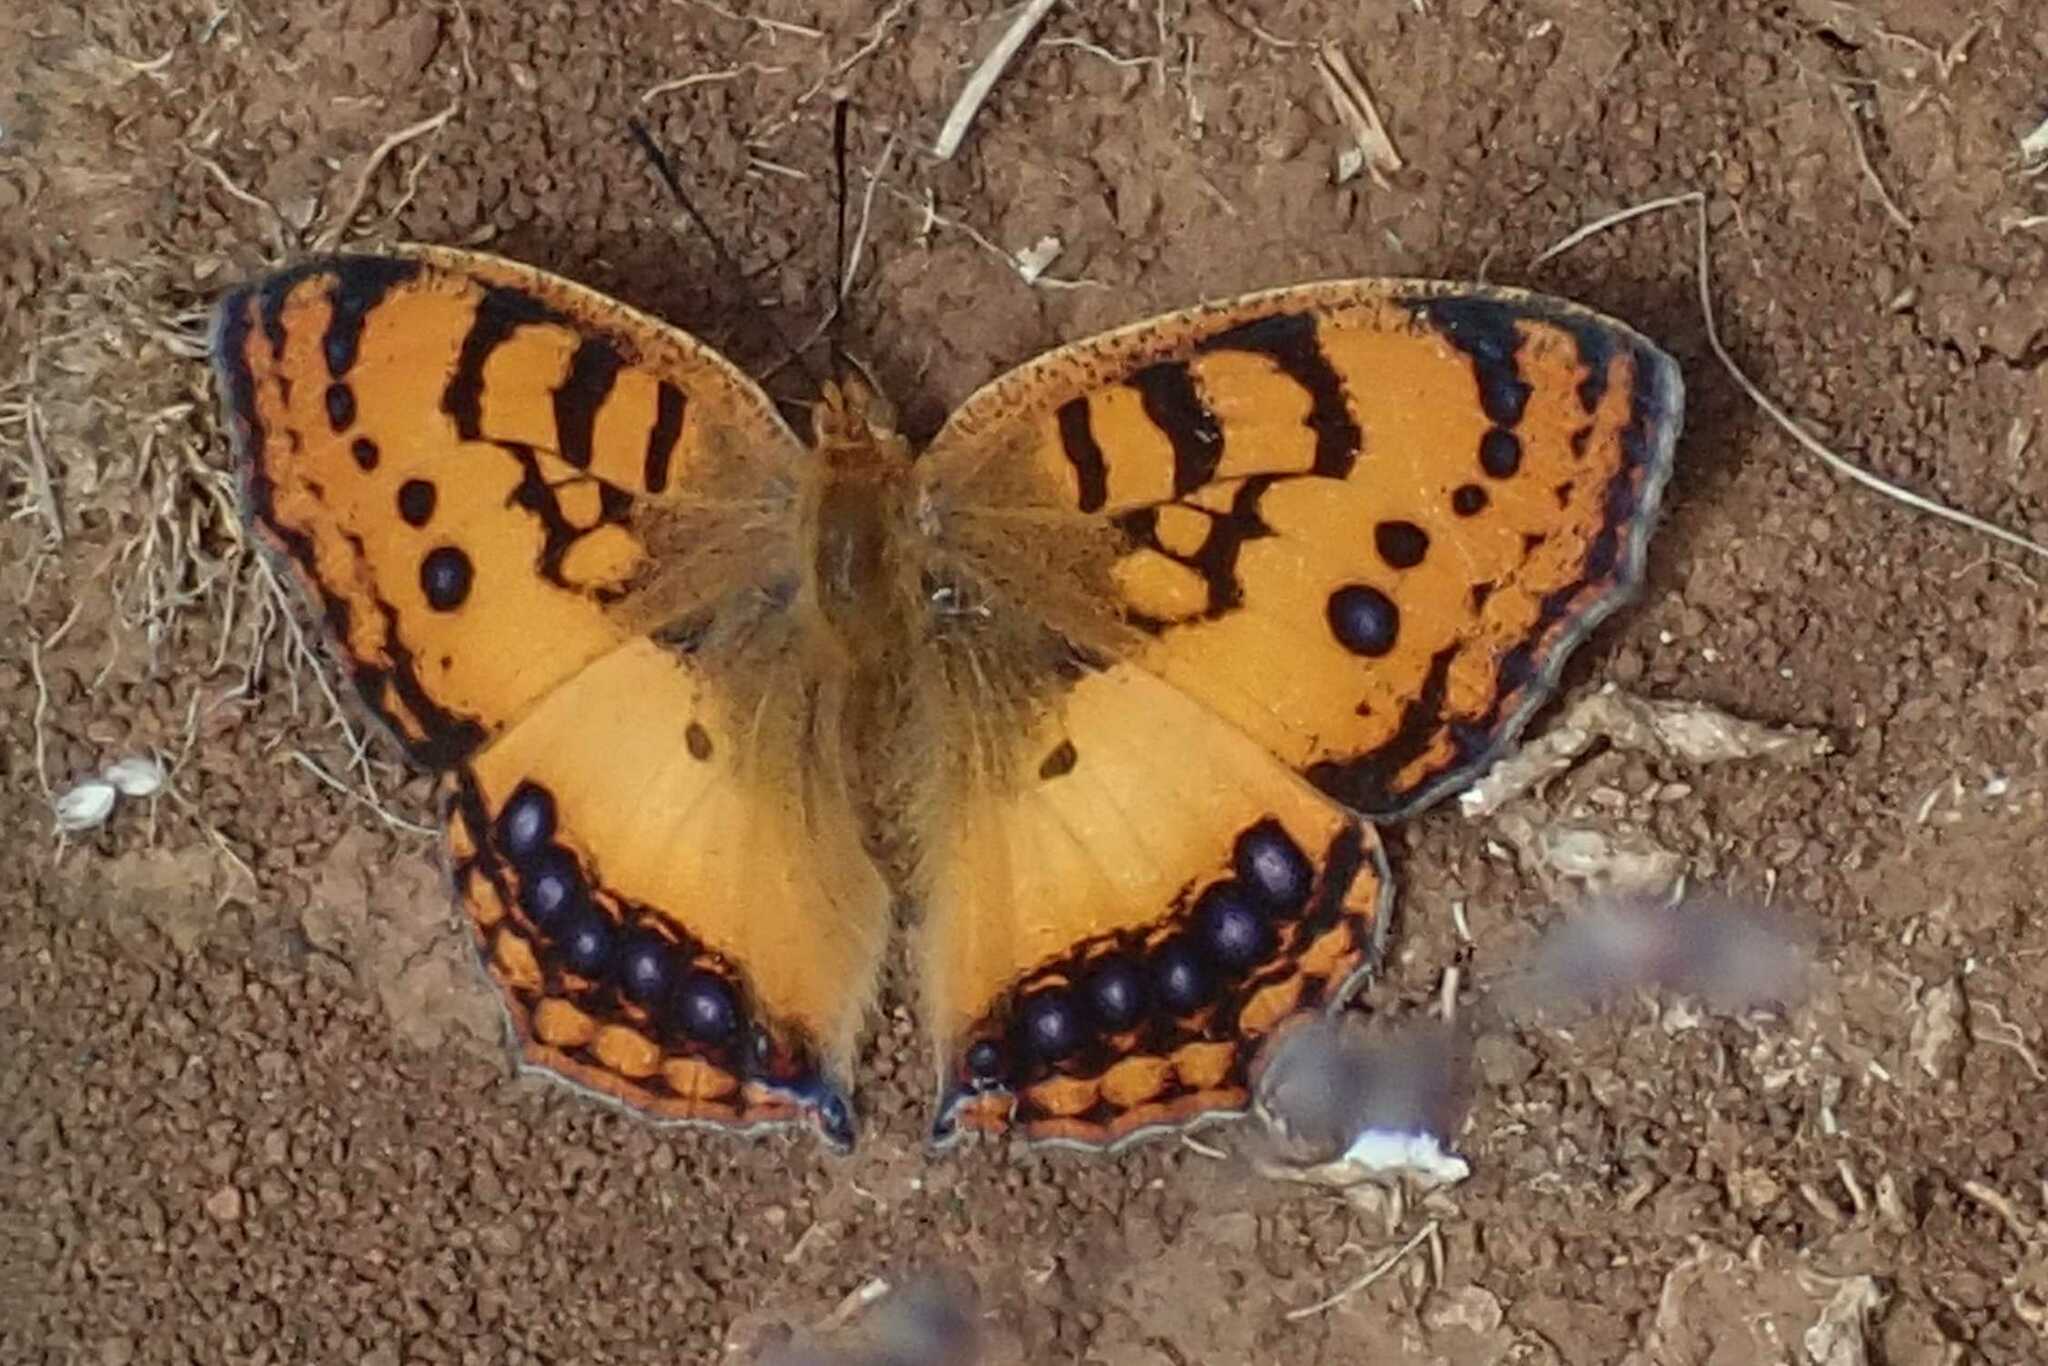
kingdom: Animalia
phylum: Arthropoda
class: Insecta
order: Lepidoptera
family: Nymphalidae
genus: Catacroptera
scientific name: Catacroptera cloanthe
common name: Pirate
